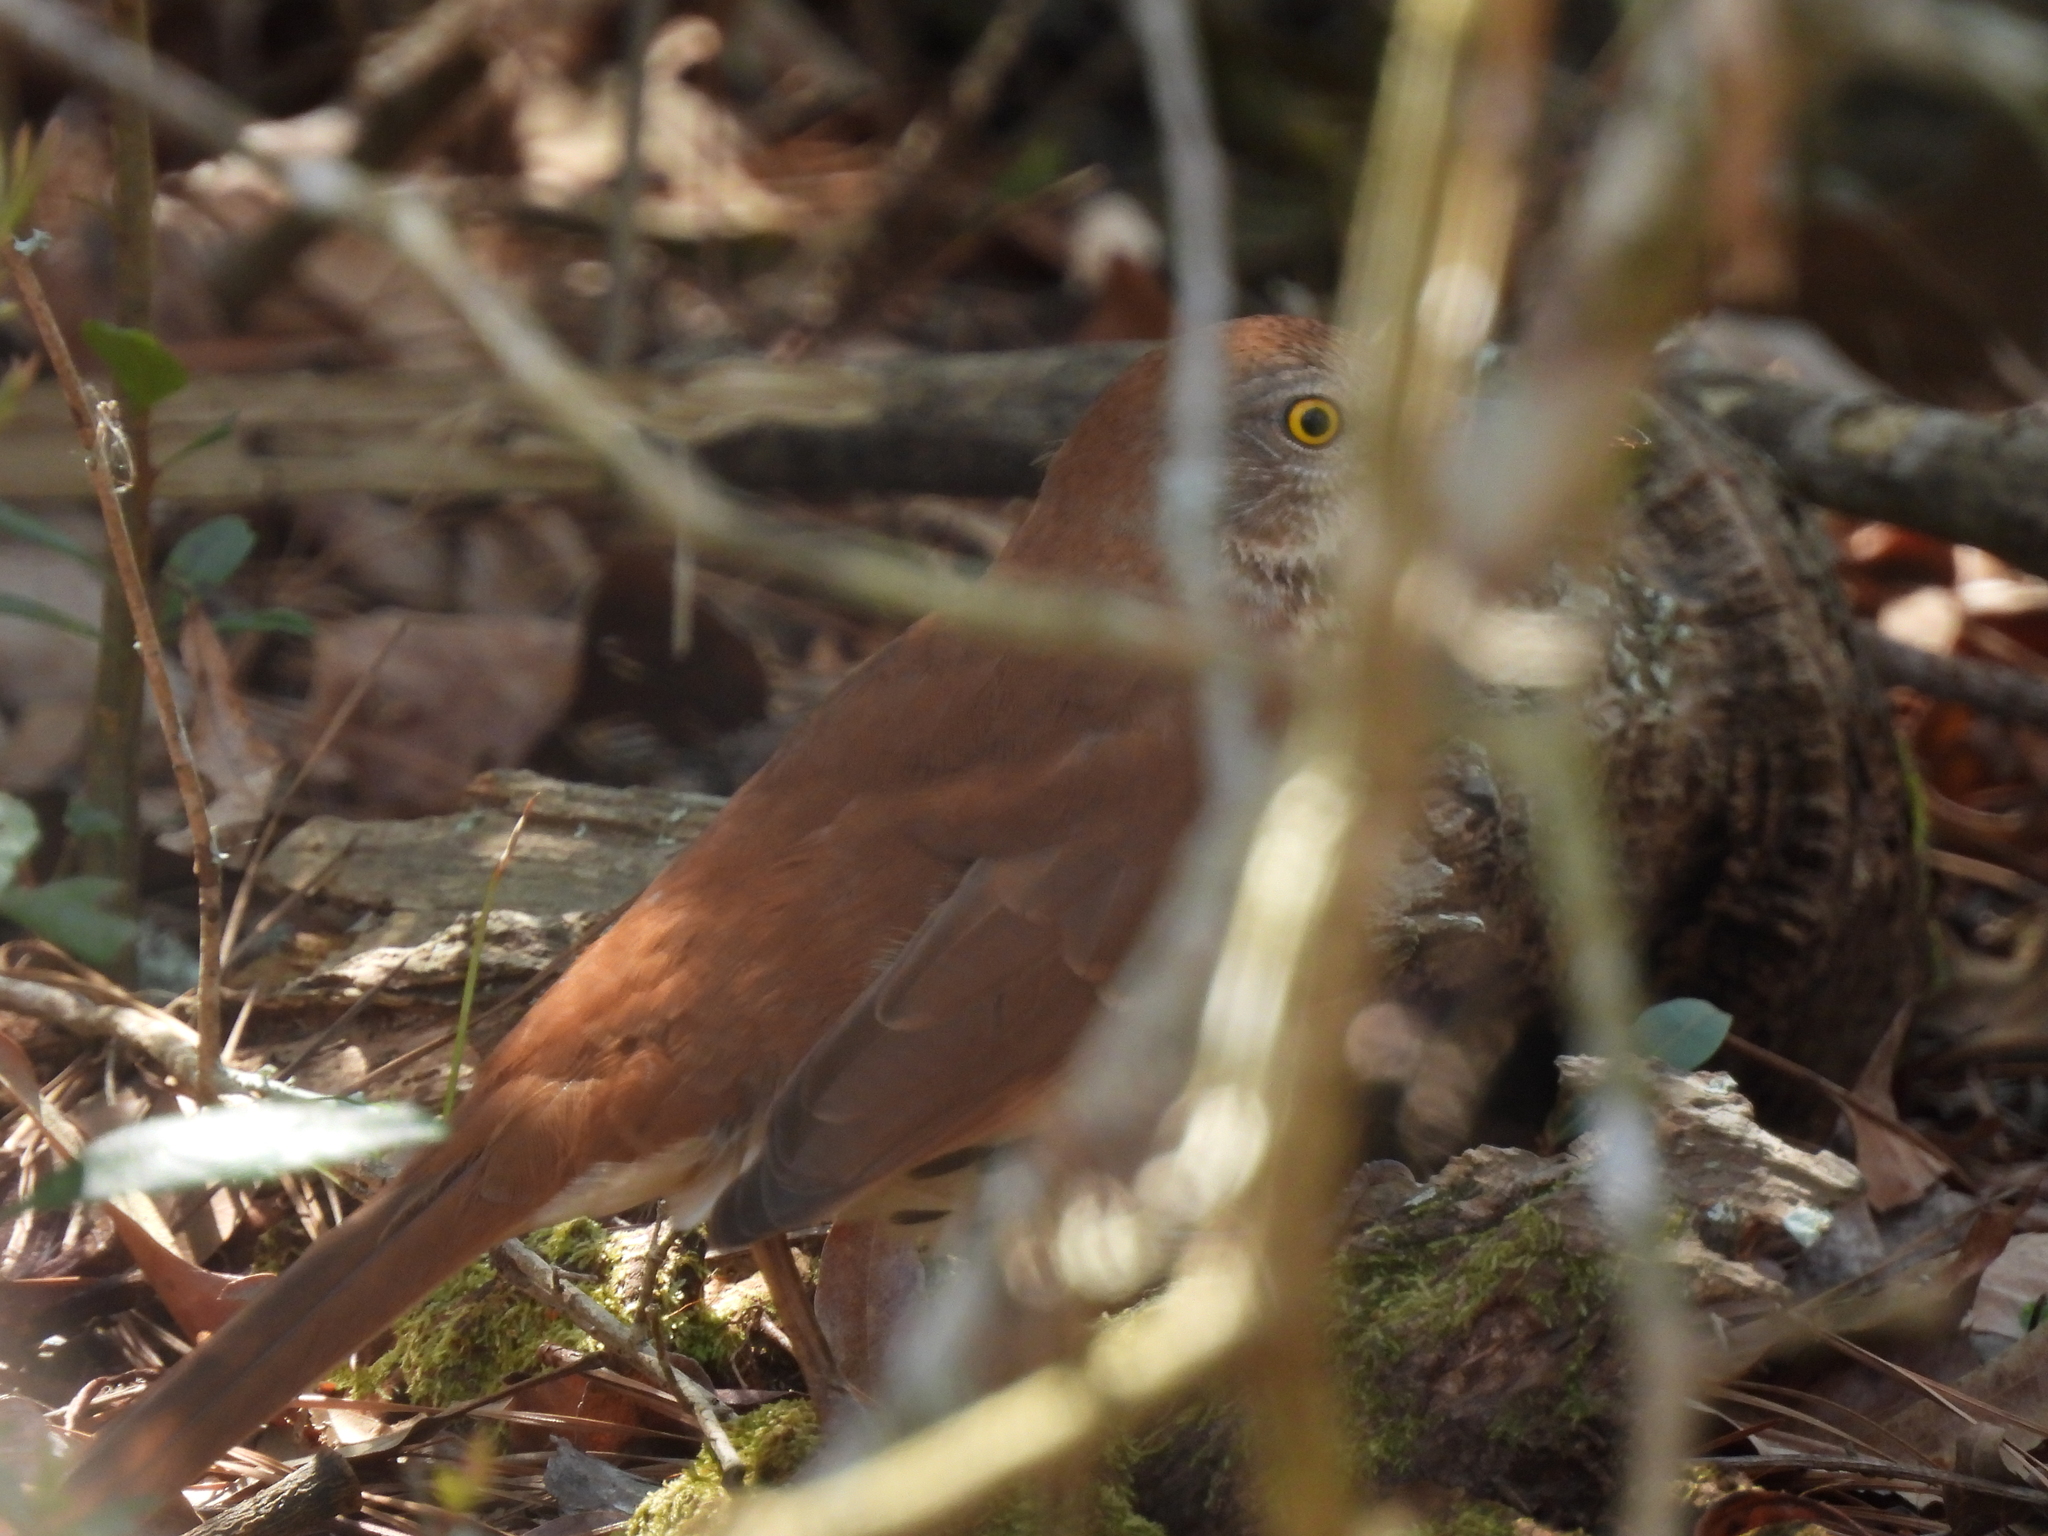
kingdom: Animalia
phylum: Chordata
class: Aves
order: Passeriformes
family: Mimidae
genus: Toxostoma
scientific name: Toxostoma rufum
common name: Brown thrasher
